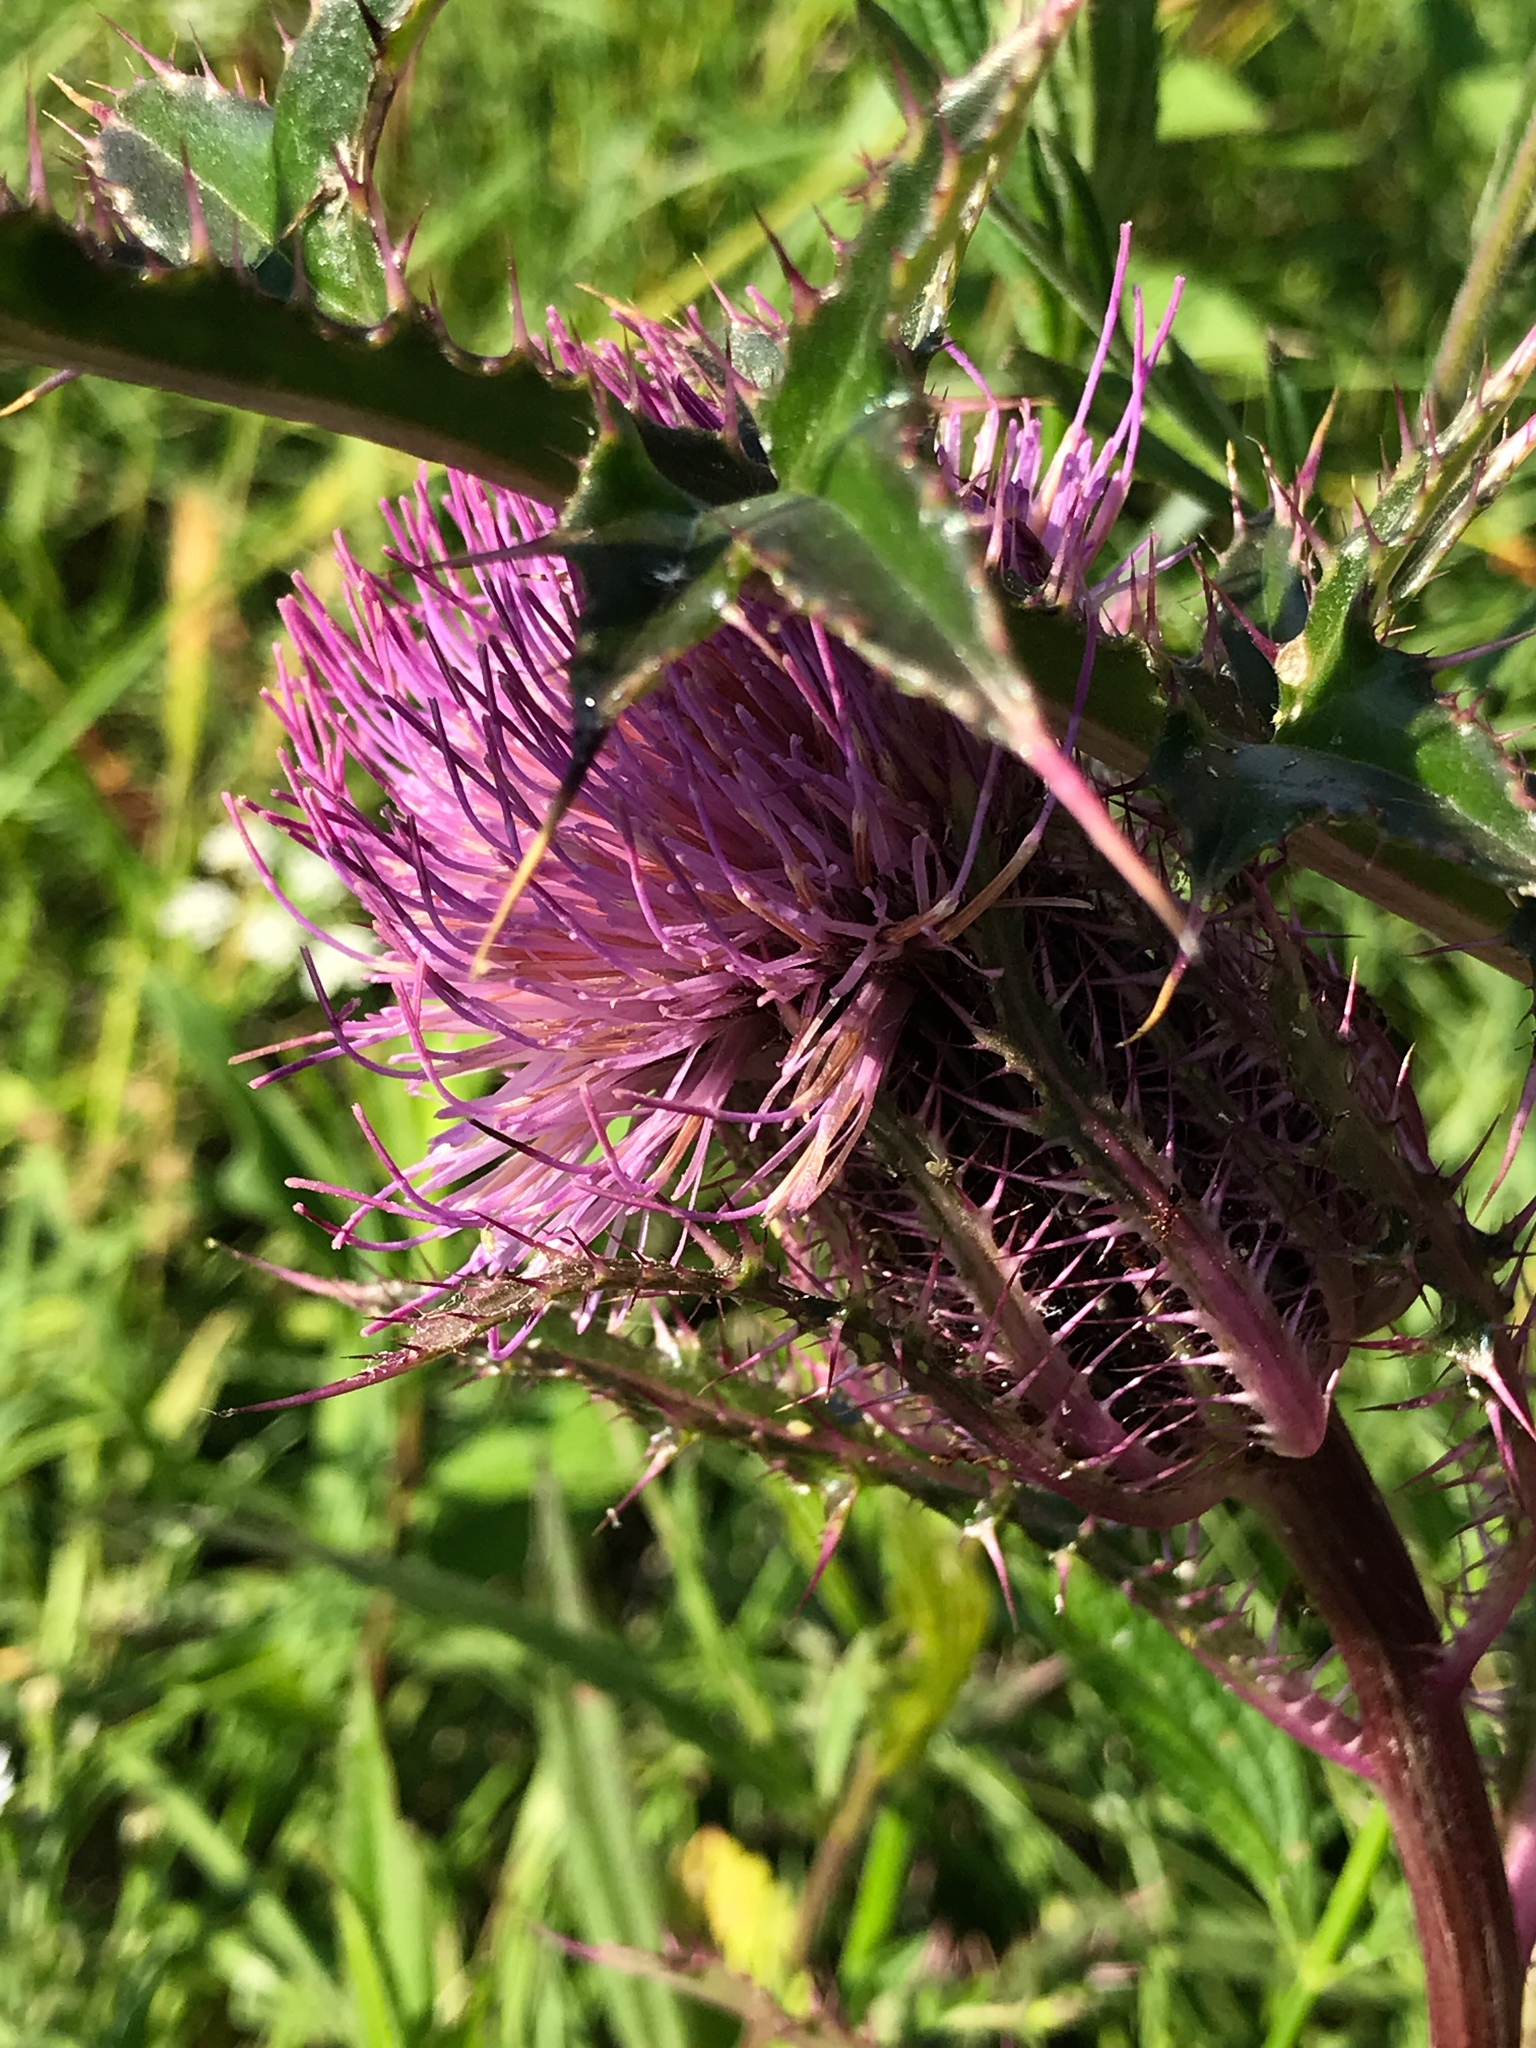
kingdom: Plantae
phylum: Tracheophyta
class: Magnoliopsida
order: Asterales
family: Asteraceae
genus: Cirsium
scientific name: Cirsium horridulum
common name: Bristly thistle
